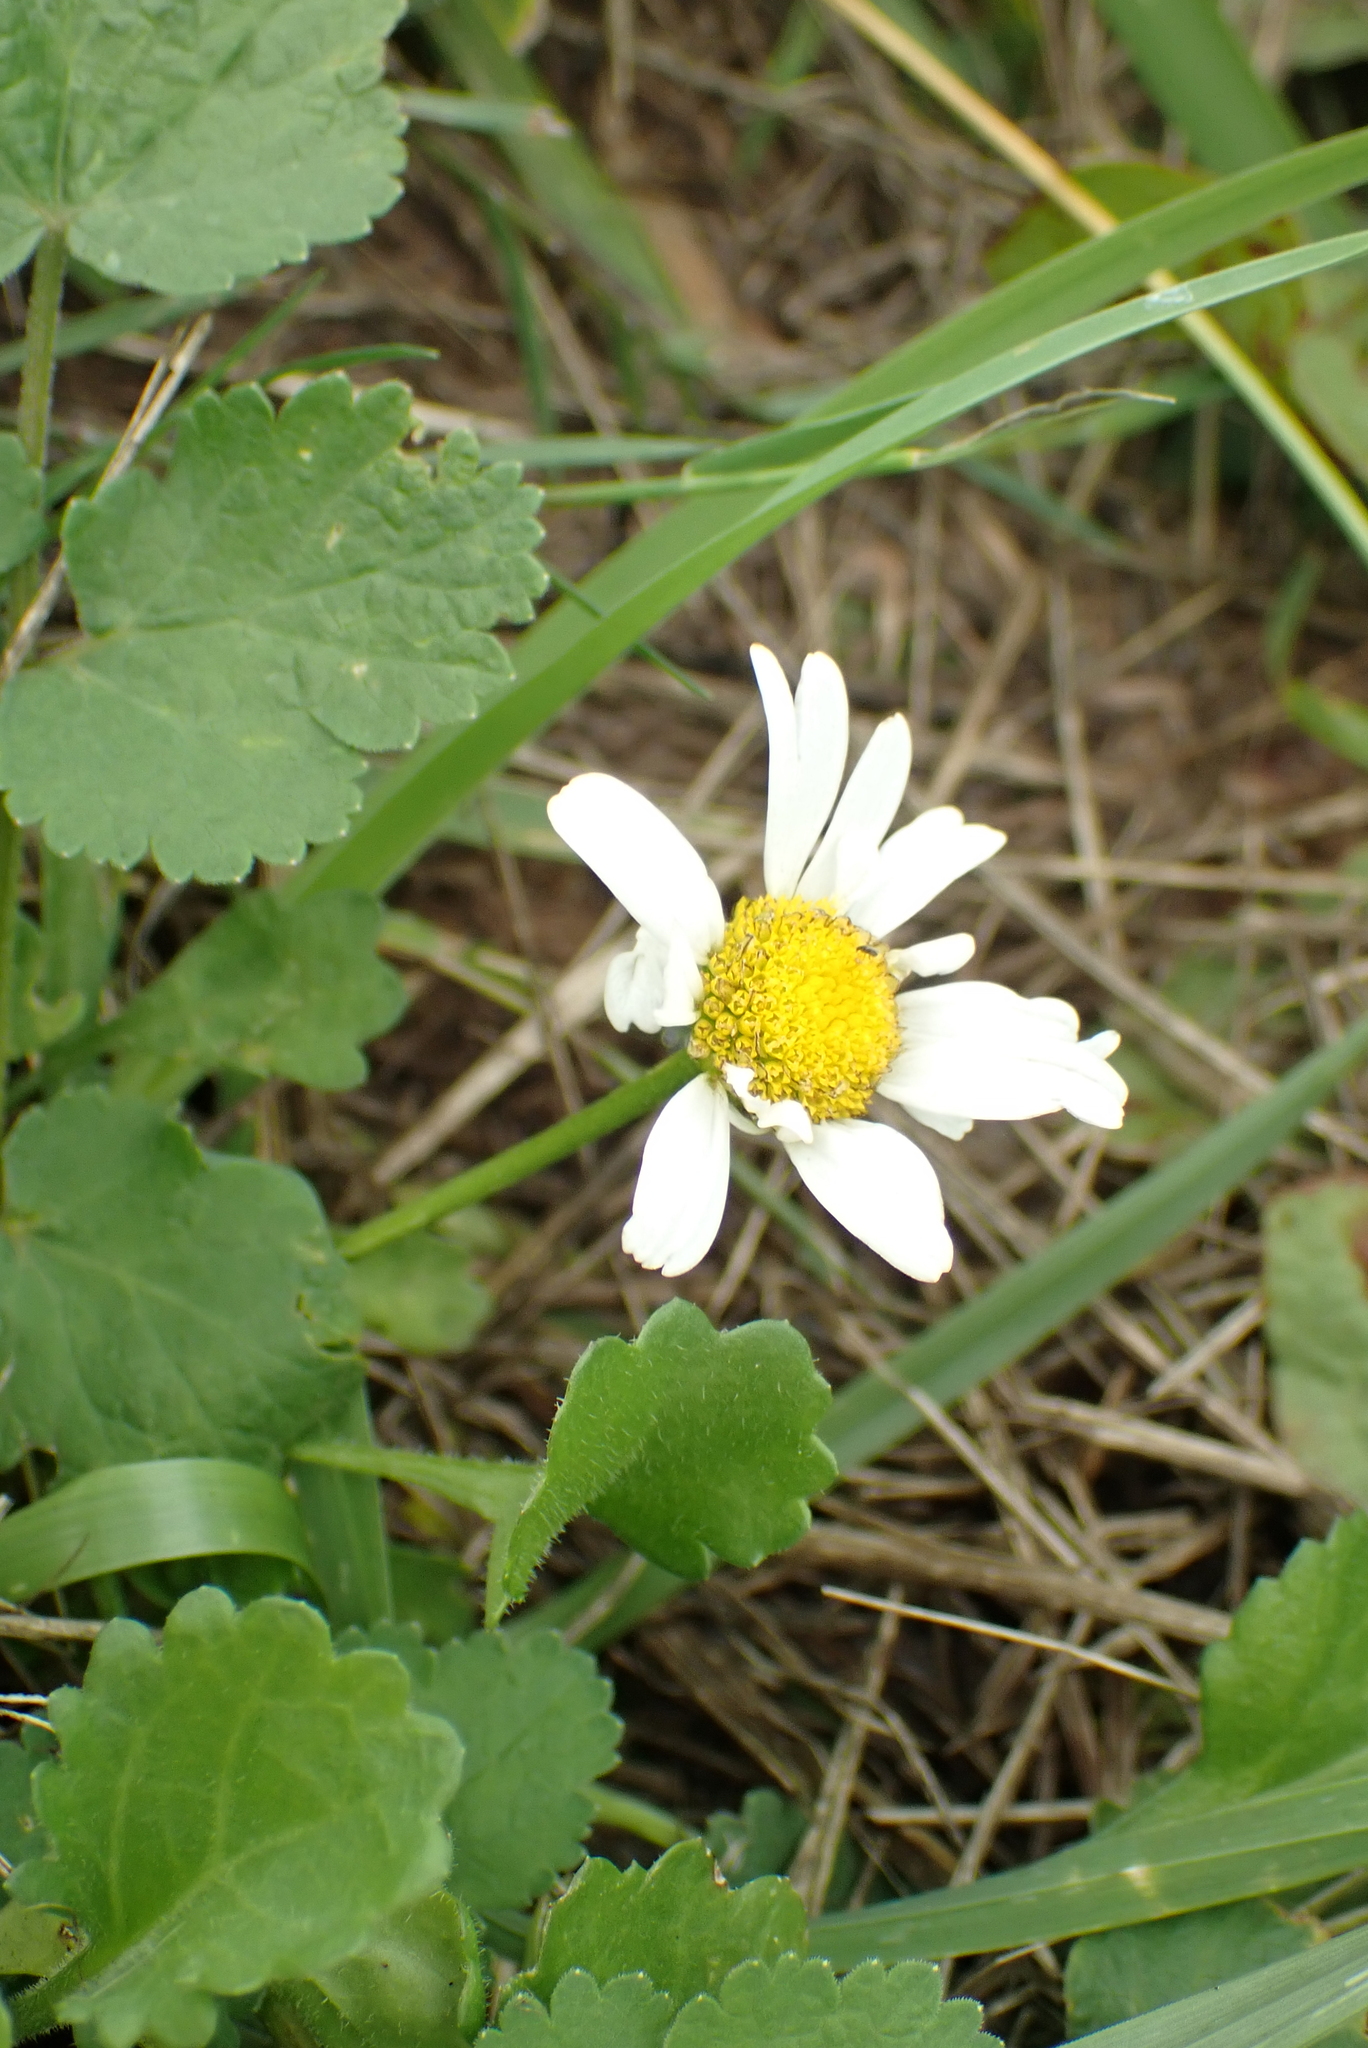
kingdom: Plantae
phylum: Tracheophyta
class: Magnoliopsida
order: Asterales
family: Asteraceae
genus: Leucanthemum
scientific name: Leucanthemum vulgare
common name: Oxeye daisy
